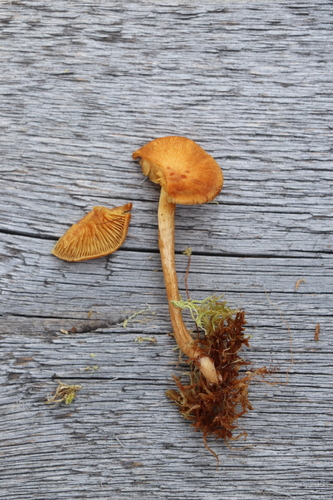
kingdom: Fungi
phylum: Basidiomycota
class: Agaricomycetes
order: Agaricales
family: Hymenogastraceae
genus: Gymnopilus
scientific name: Gymnopilus turficola
